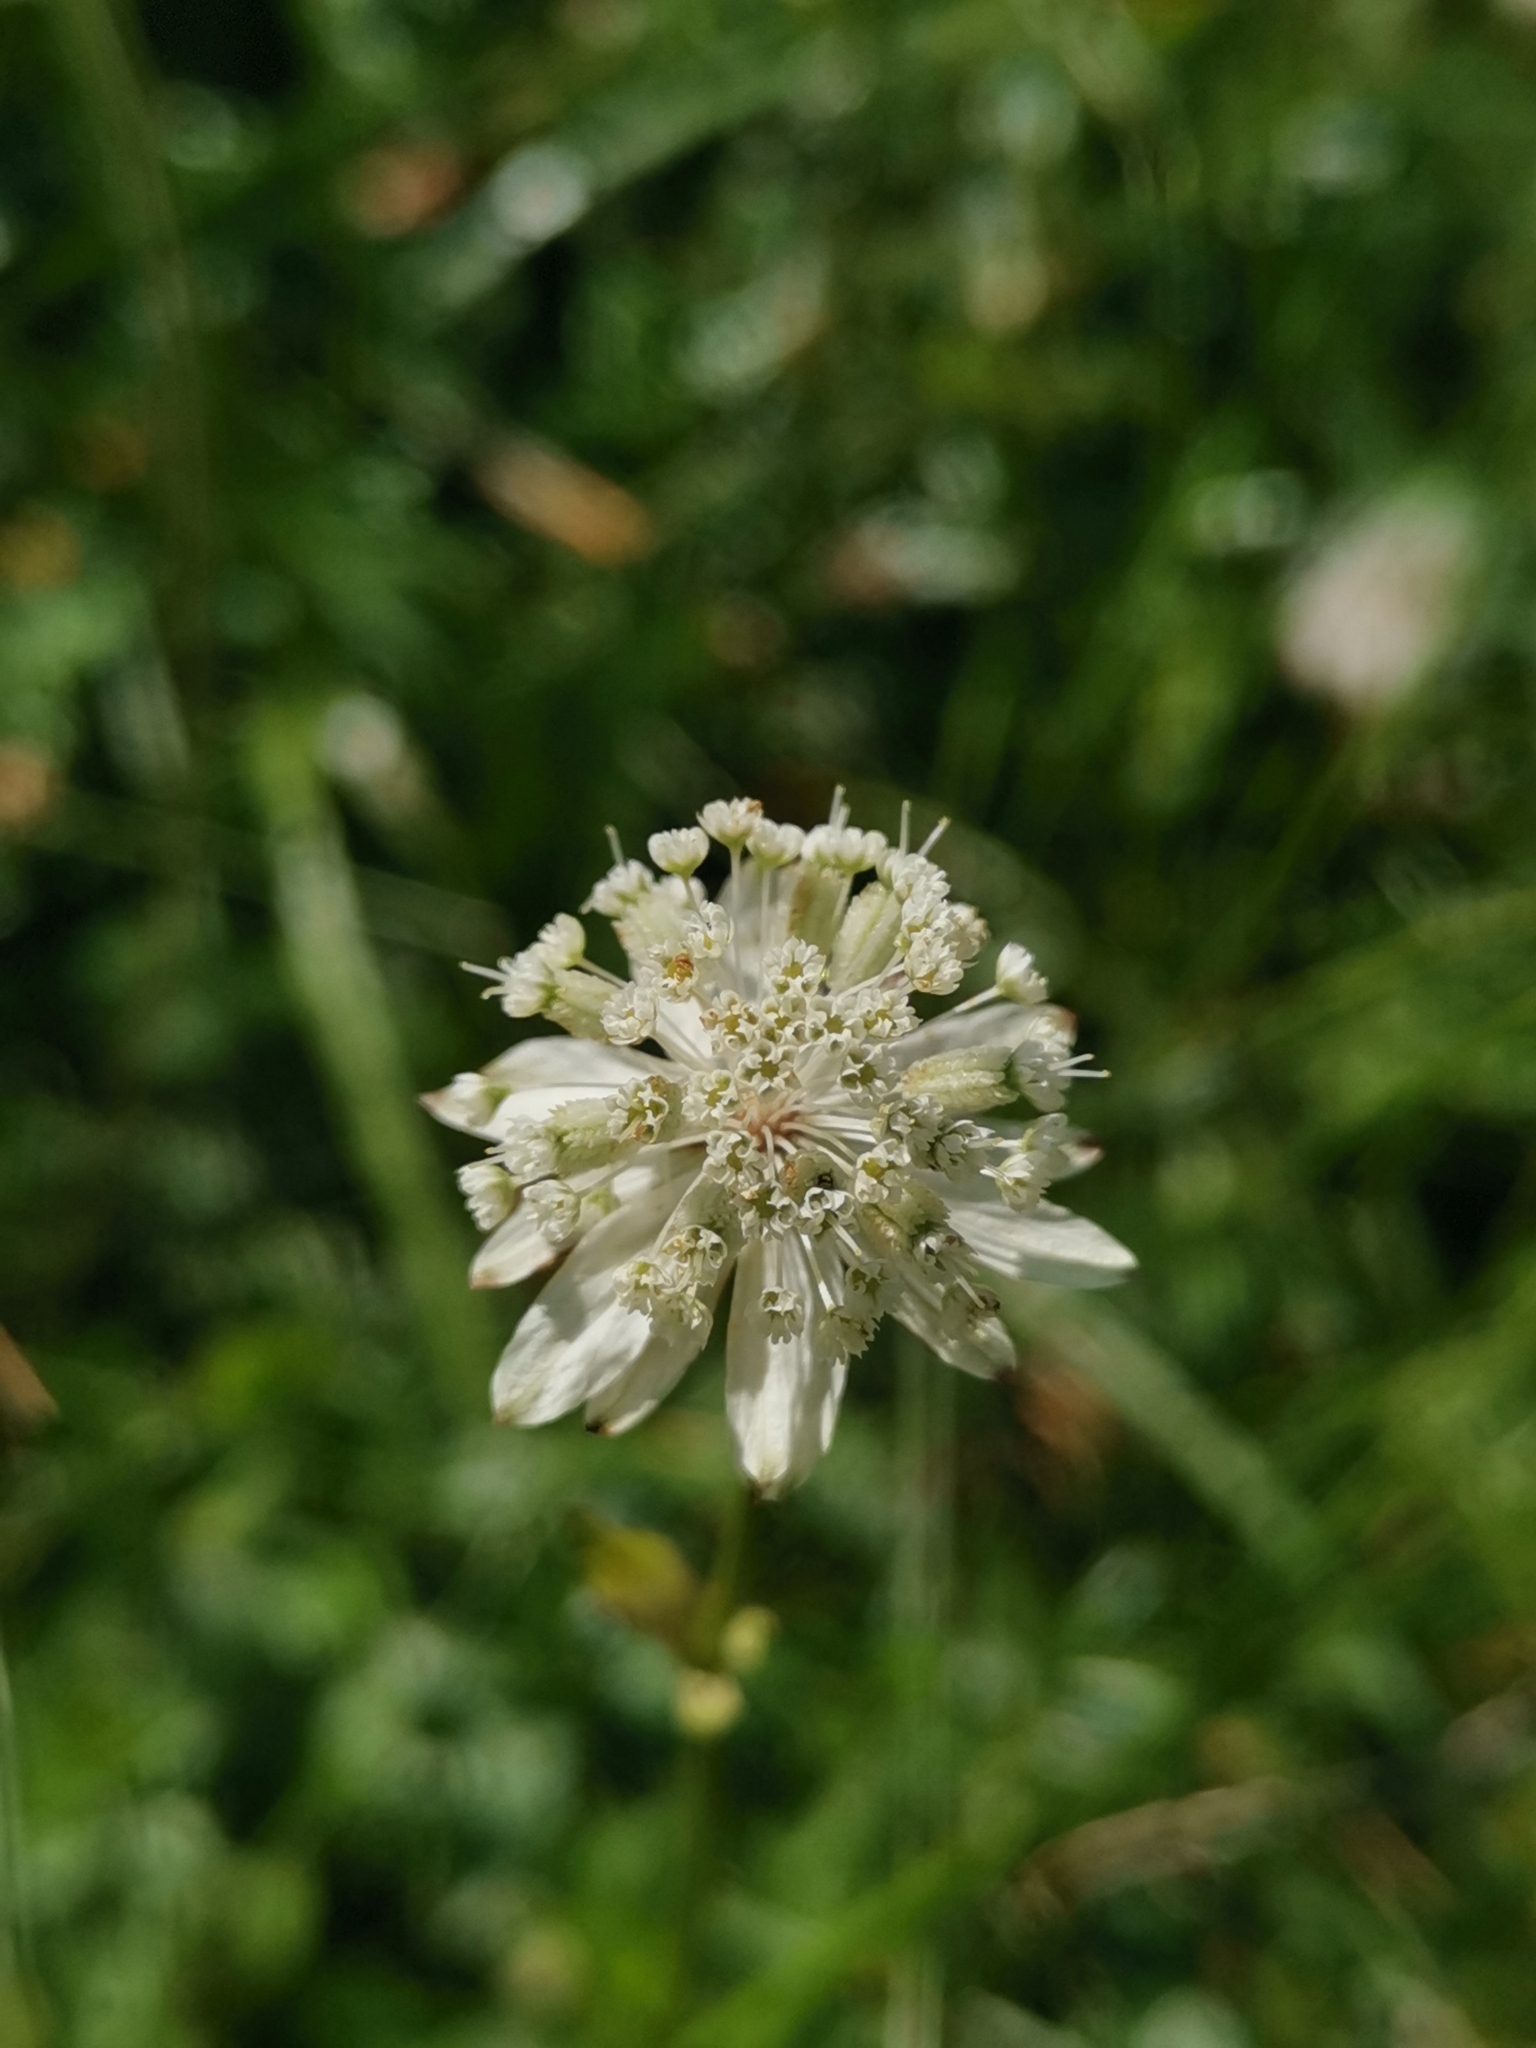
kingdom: Plantae
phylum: Tracheophyta
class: Magnoliopsida
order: Apiales
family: Apiaceae
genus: Astrantia
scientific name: Astrantia carniolica
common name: Carnic masterwort
